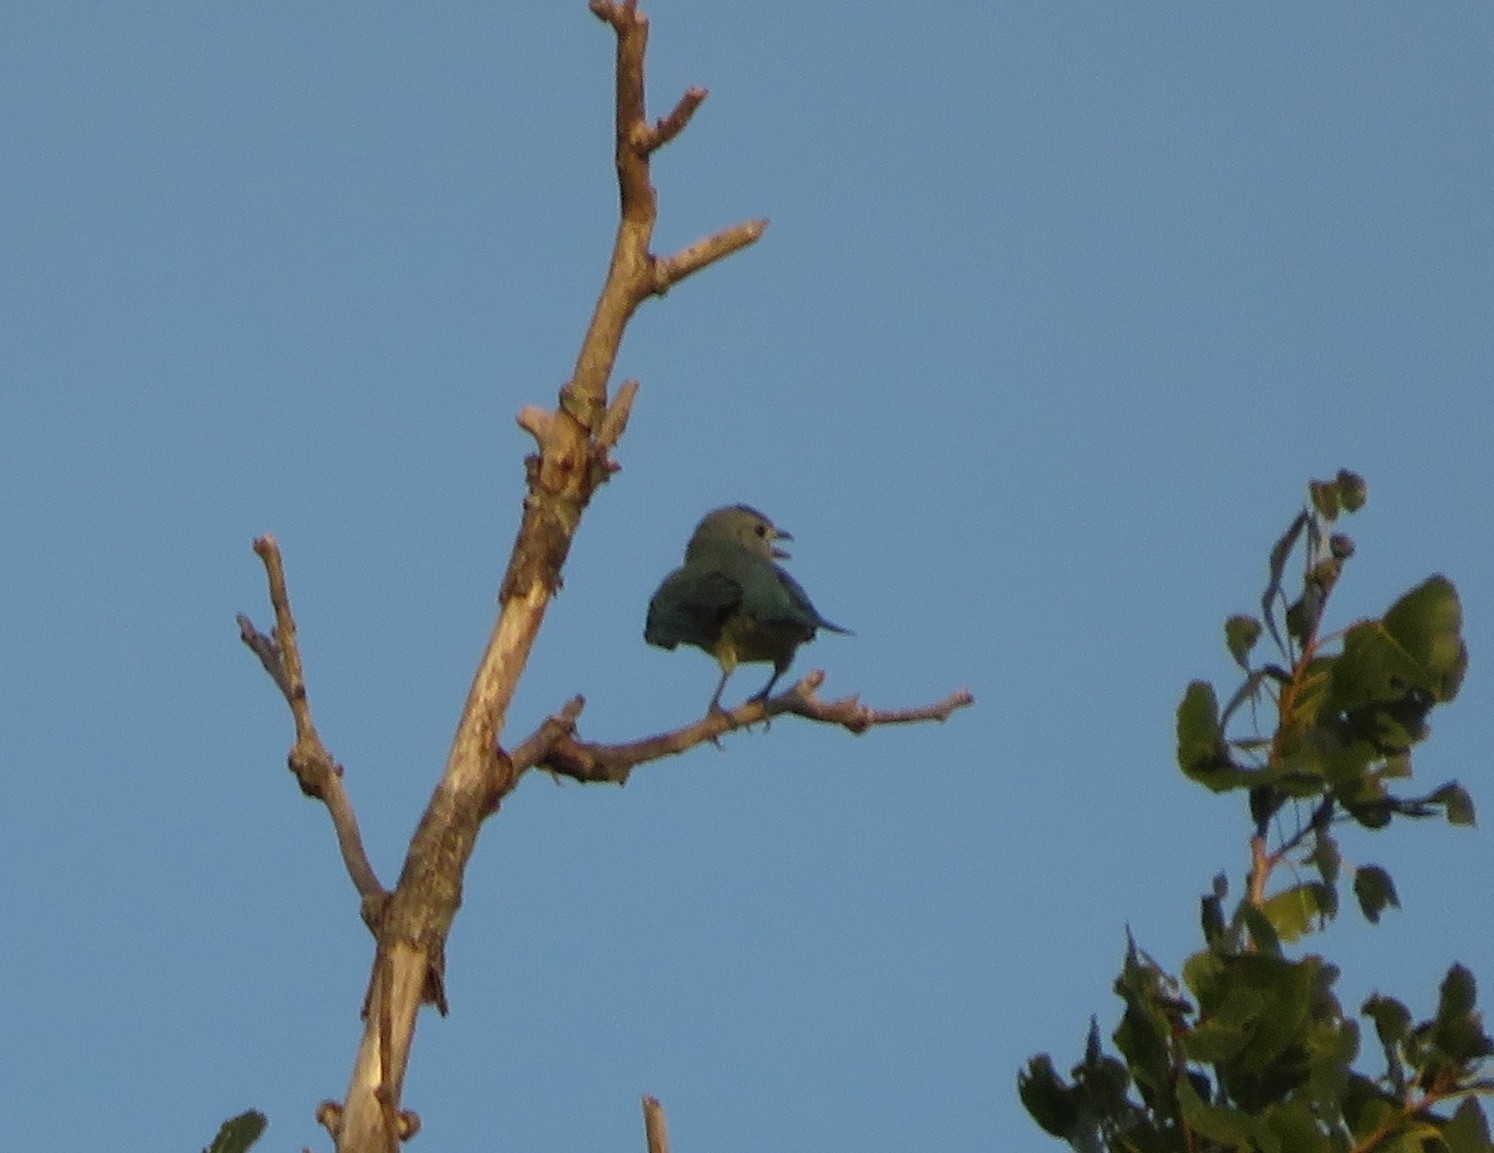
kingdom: Animalia
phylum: Chordata
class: Aves
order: Passeriformes
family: Thraupidae
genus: Thraupis
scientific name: Thraupis sayaca
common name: Sayaca tanager
